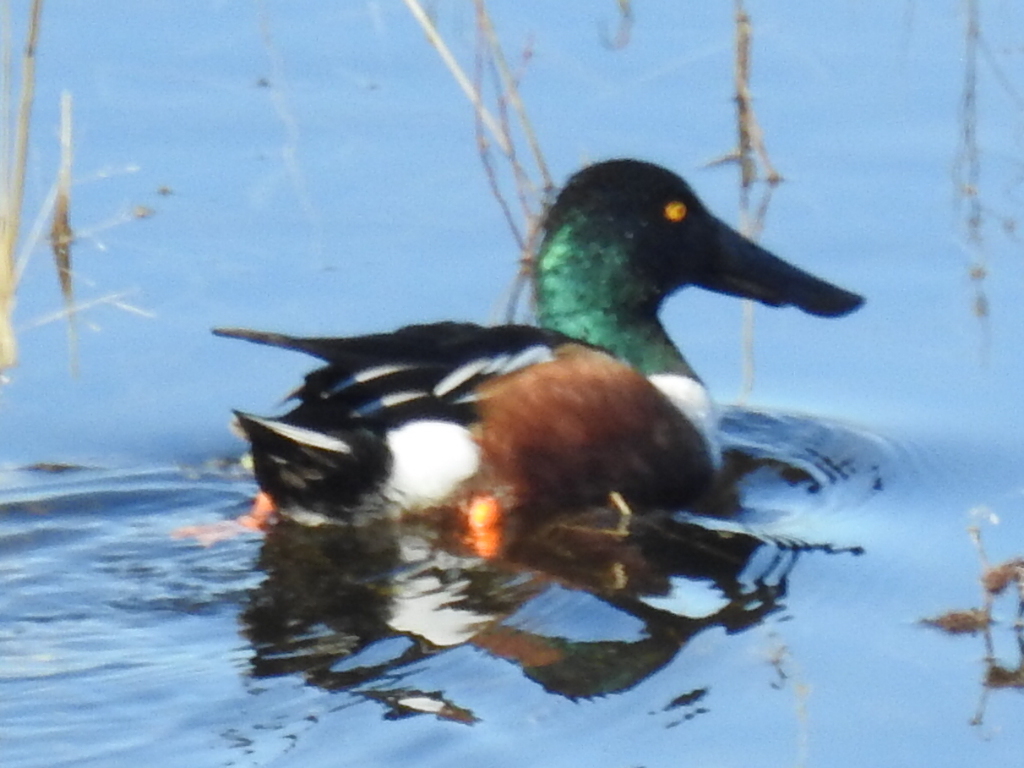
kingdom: Animalia
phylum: Chordata
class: Aves
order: Anseriformes
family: Anatidae
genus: Spatula
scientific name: Spatula clypeata
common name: Northern shoveler
